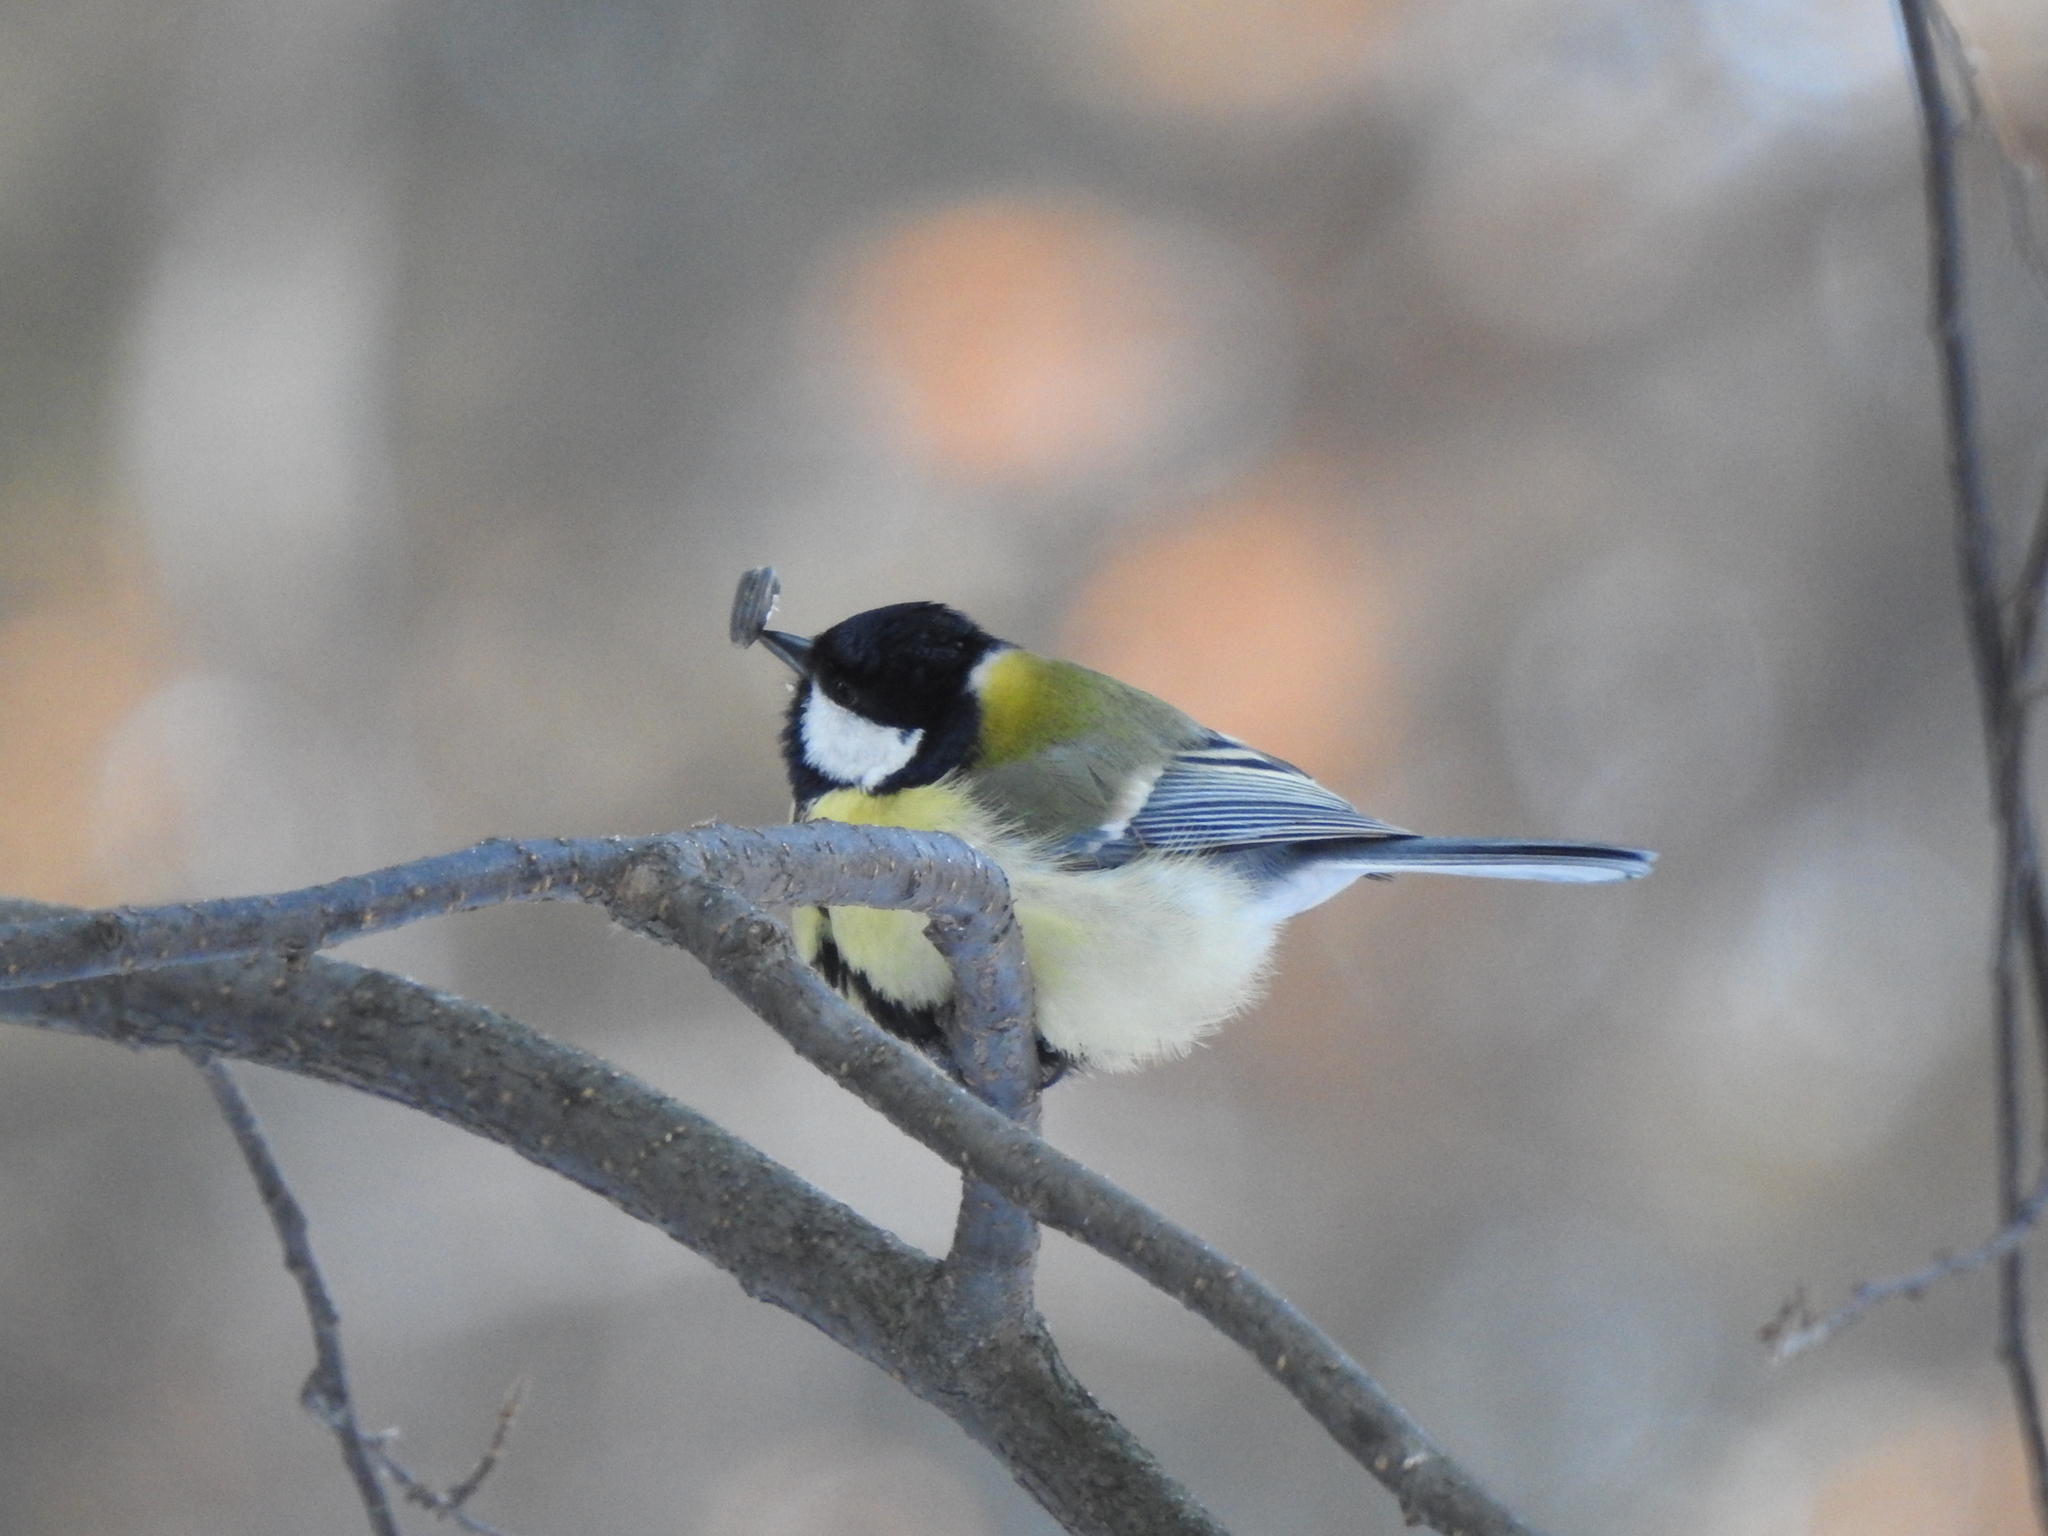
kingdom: Animalia
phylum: Chordata
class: Aves
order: Passeriformes
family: Paridae
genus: Parus
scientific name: Parus major
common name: Great tit
